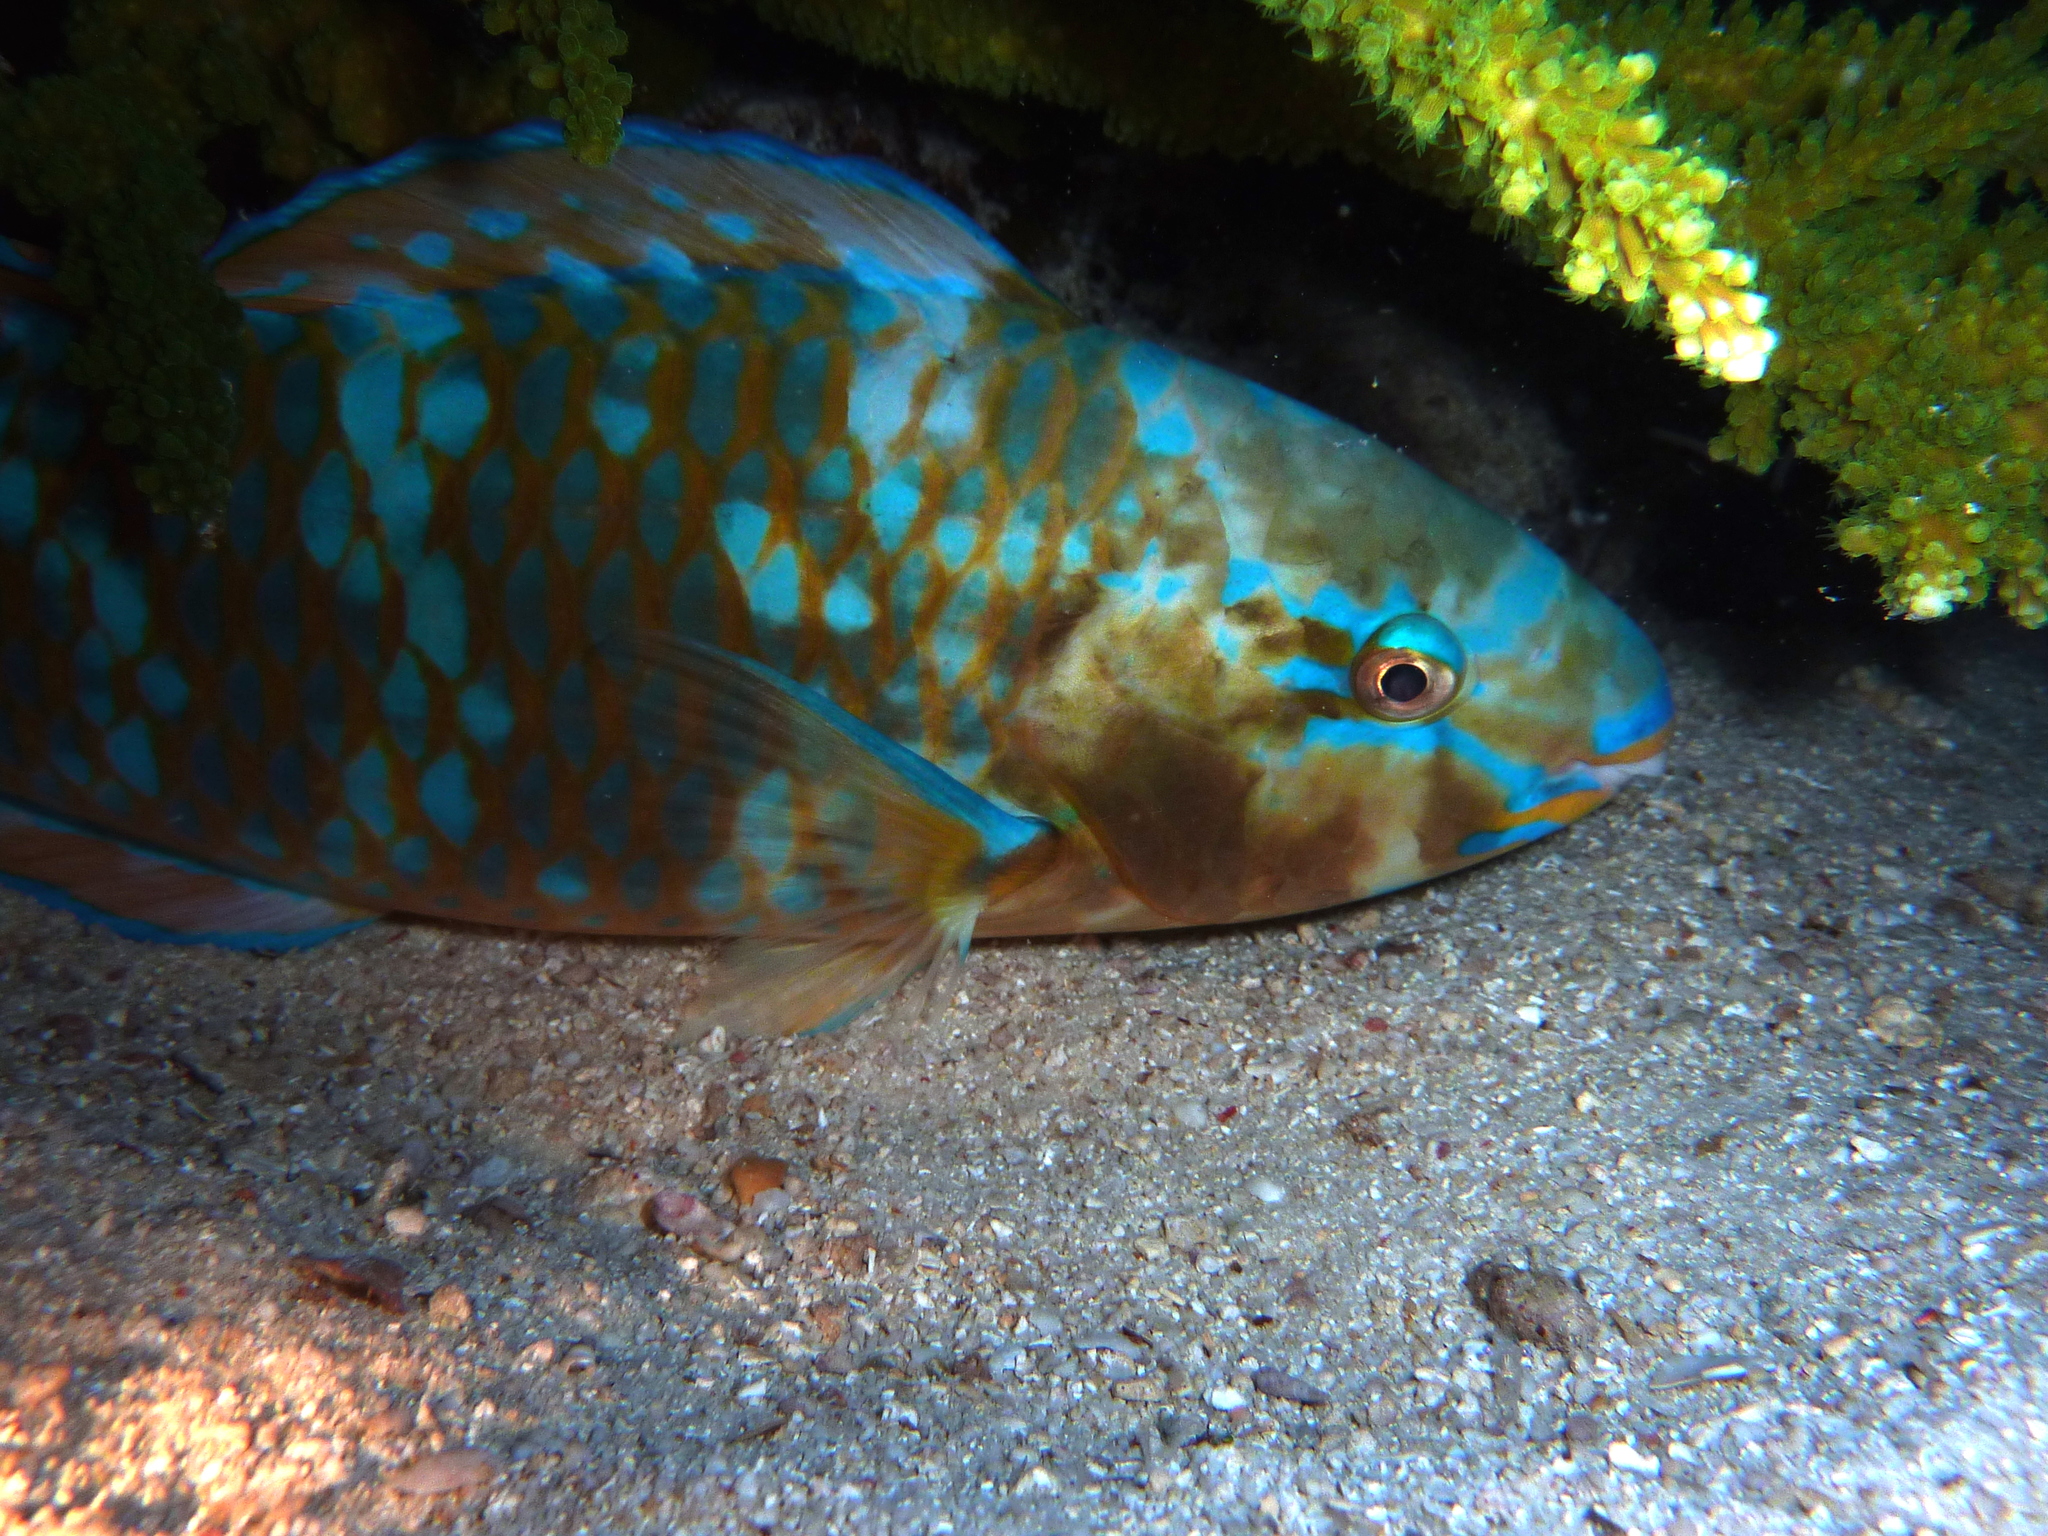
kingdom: Animalia
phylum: Chordata
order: Perciformes
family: Scaridae
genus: Scarus
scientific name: Scarus ghobban
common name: Blue-barred parrotfish
